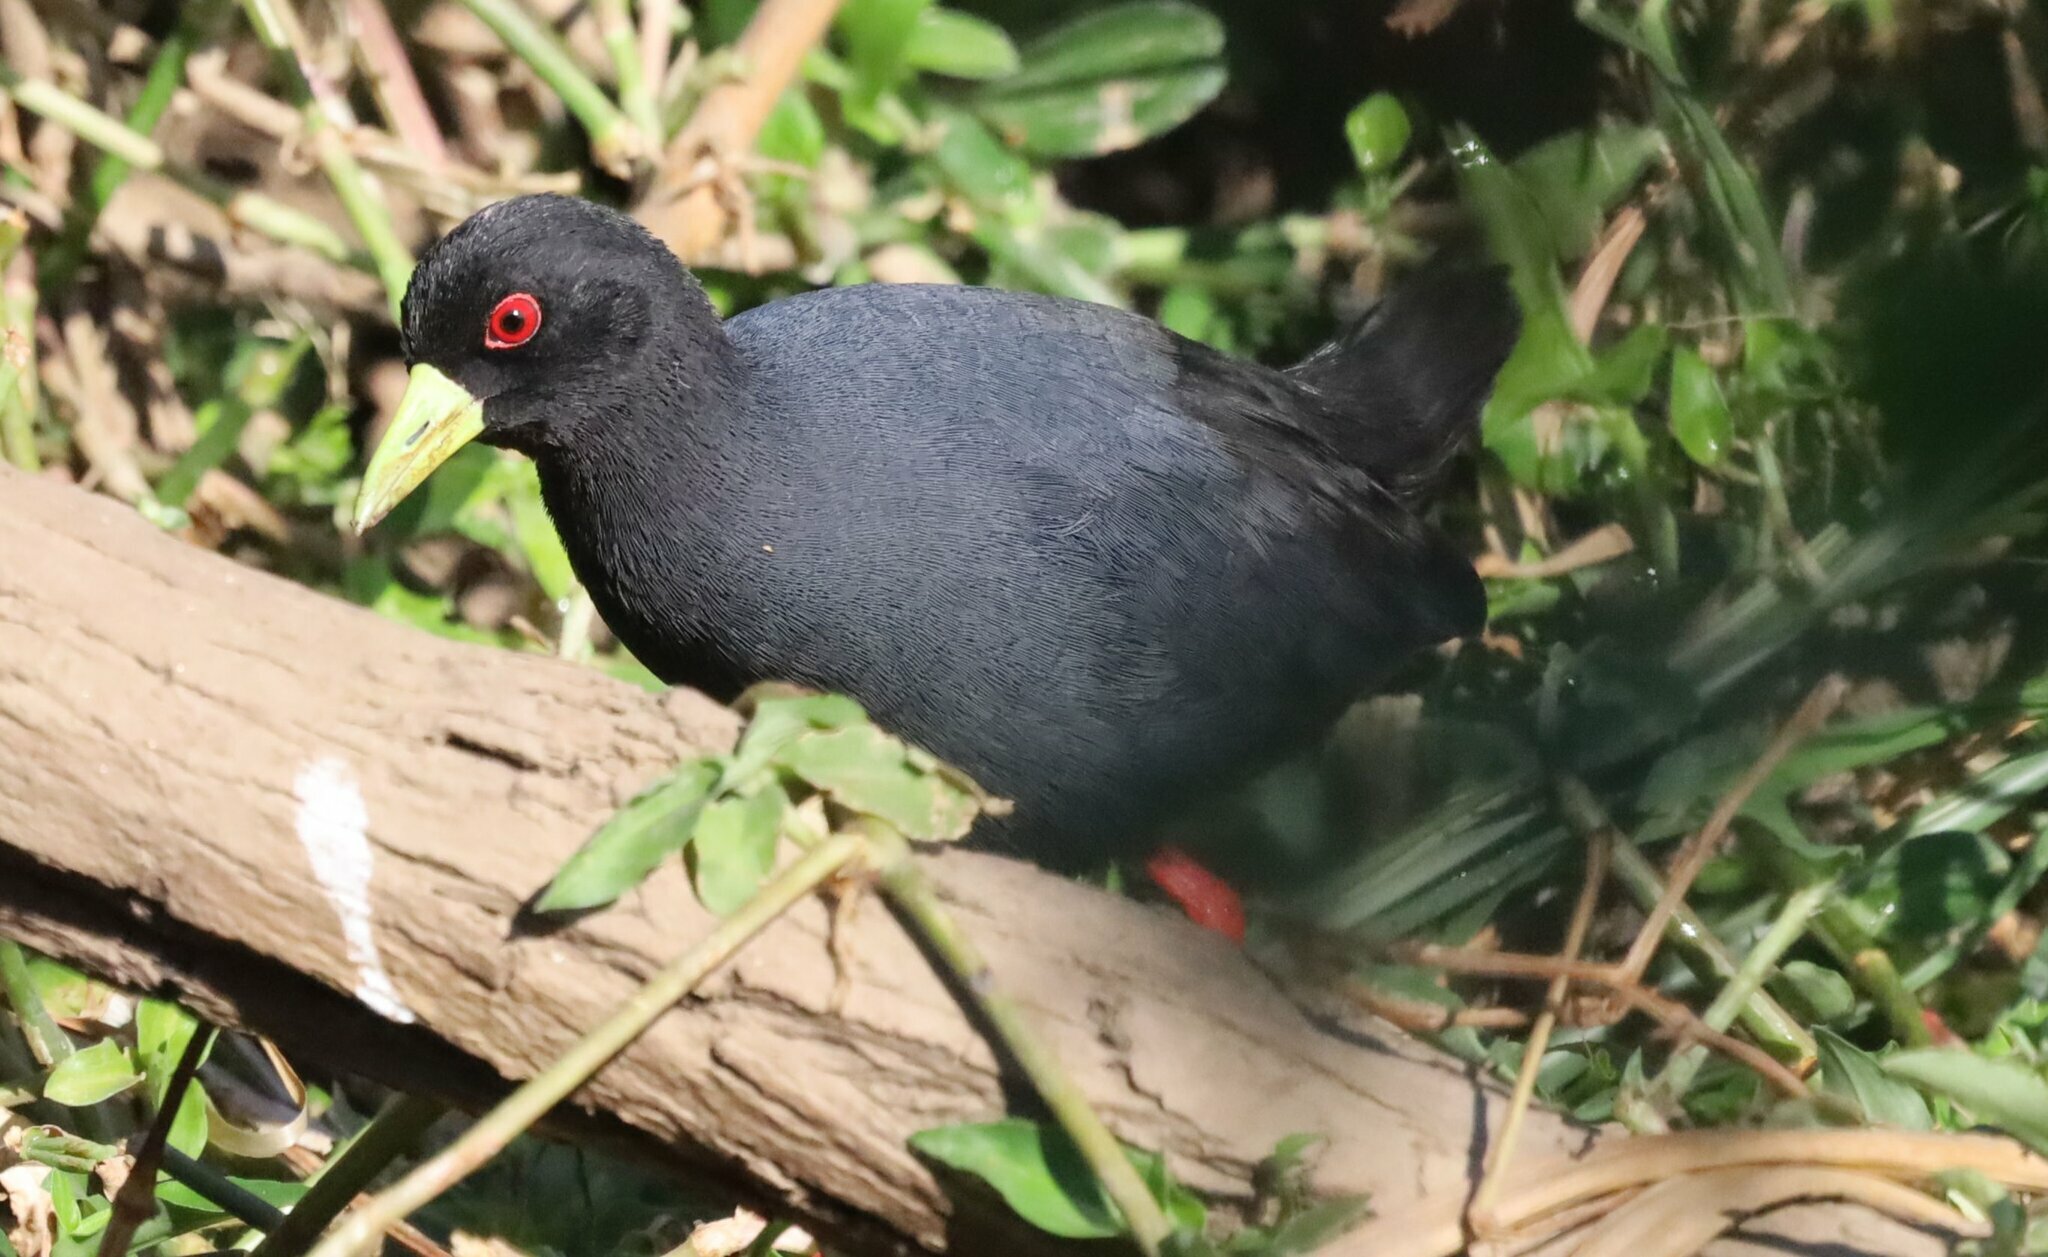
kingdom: Animalia
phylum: Chordata
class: Aves
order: Gruiformes
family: Rallidae
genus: Amaurornis
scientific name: Amaurornis flavirostra
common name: Black crake
